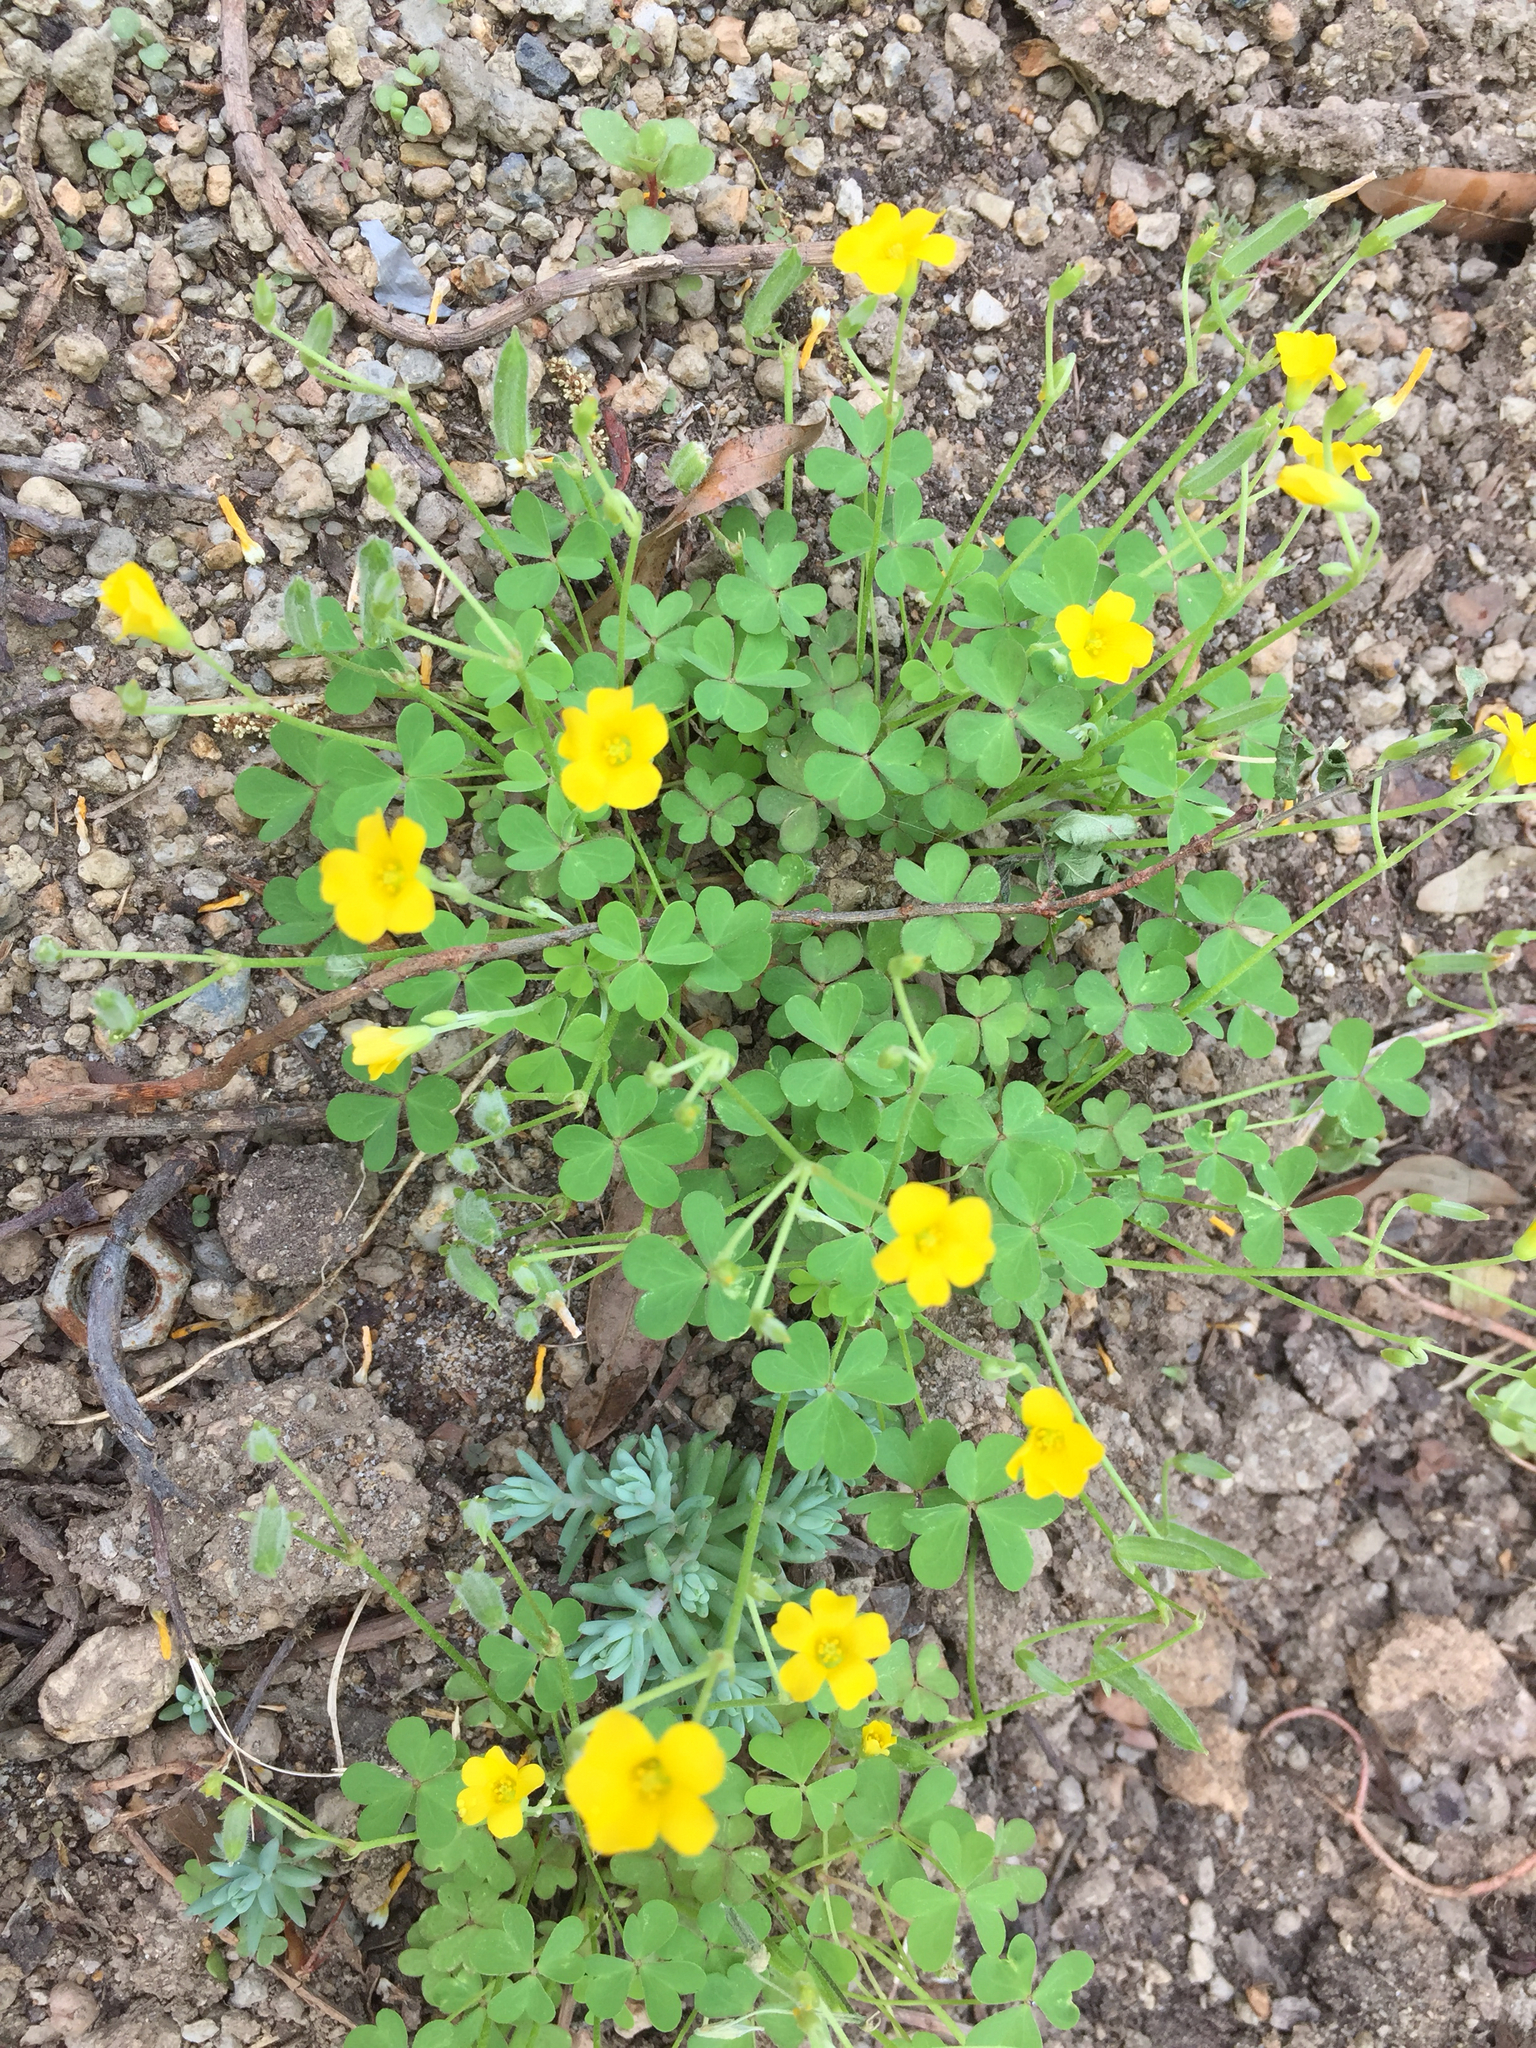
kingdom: Plantae
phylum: Tracheophyta
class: Magnoliopsida
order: Oxalidales
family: Oxalidaceae
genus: Oxalis
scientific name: Oxalis stricta
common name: Upright yellow-sorrel
